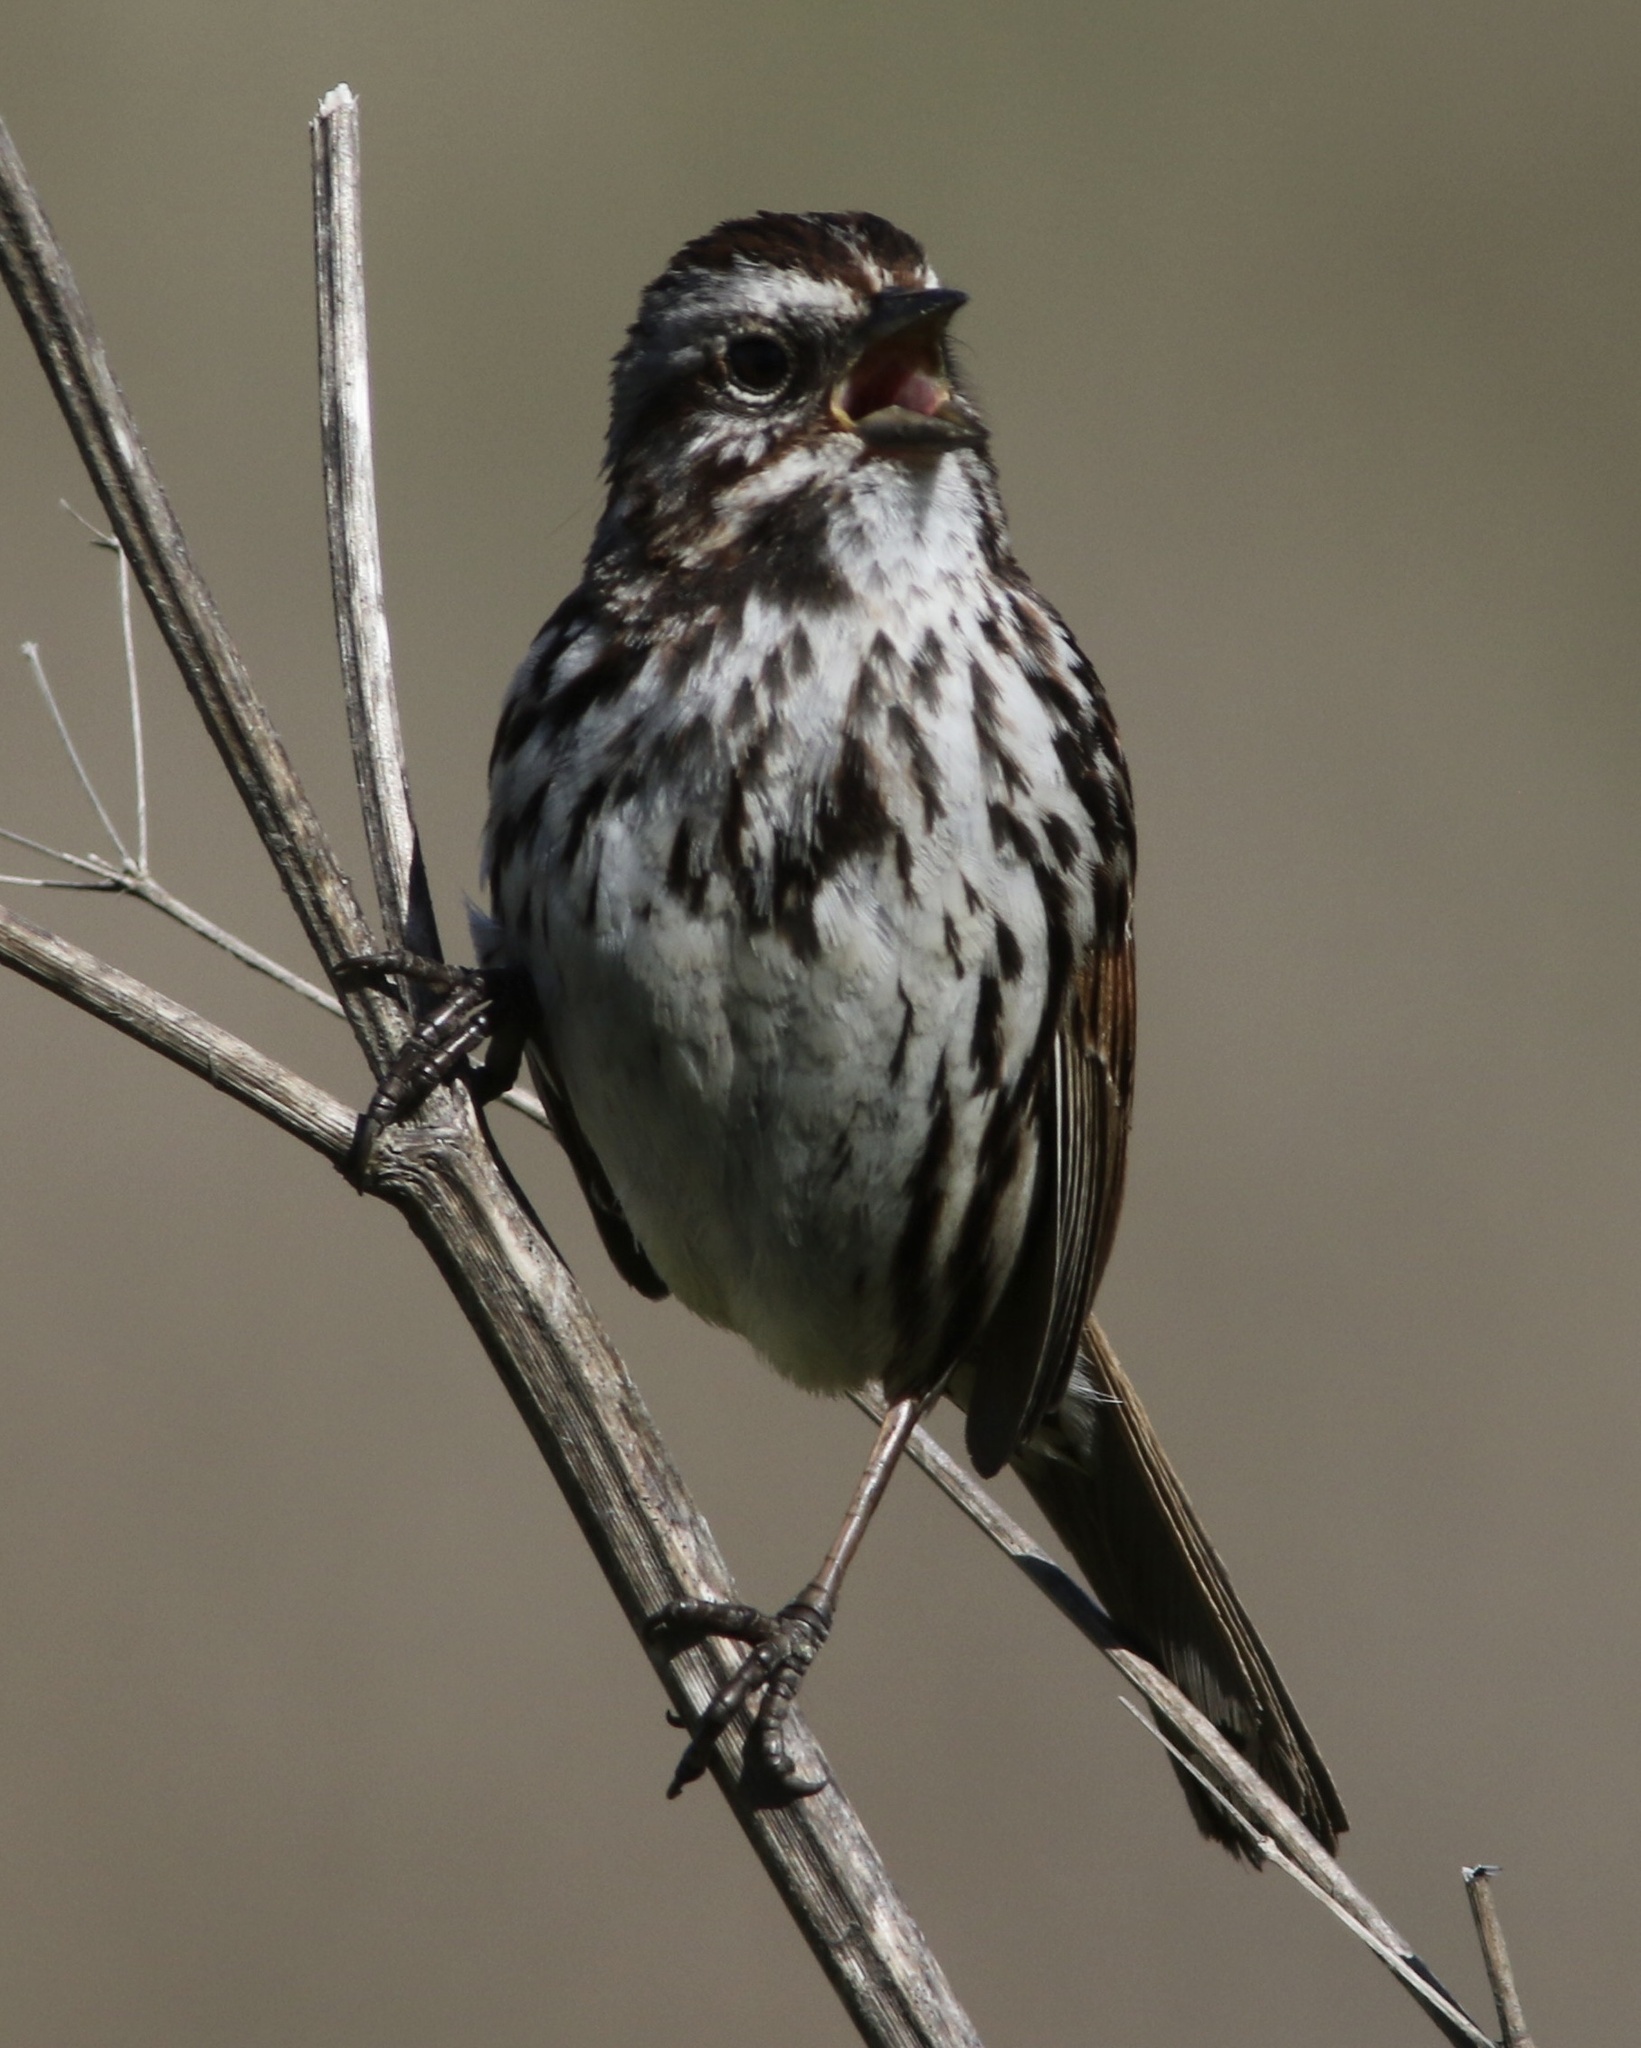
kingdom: Animalia
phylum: Chordata
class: Aves
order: Passeriformes
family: Passerellidae
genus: Melospiza
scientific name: Melospiza melodia
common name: Song sparrow
